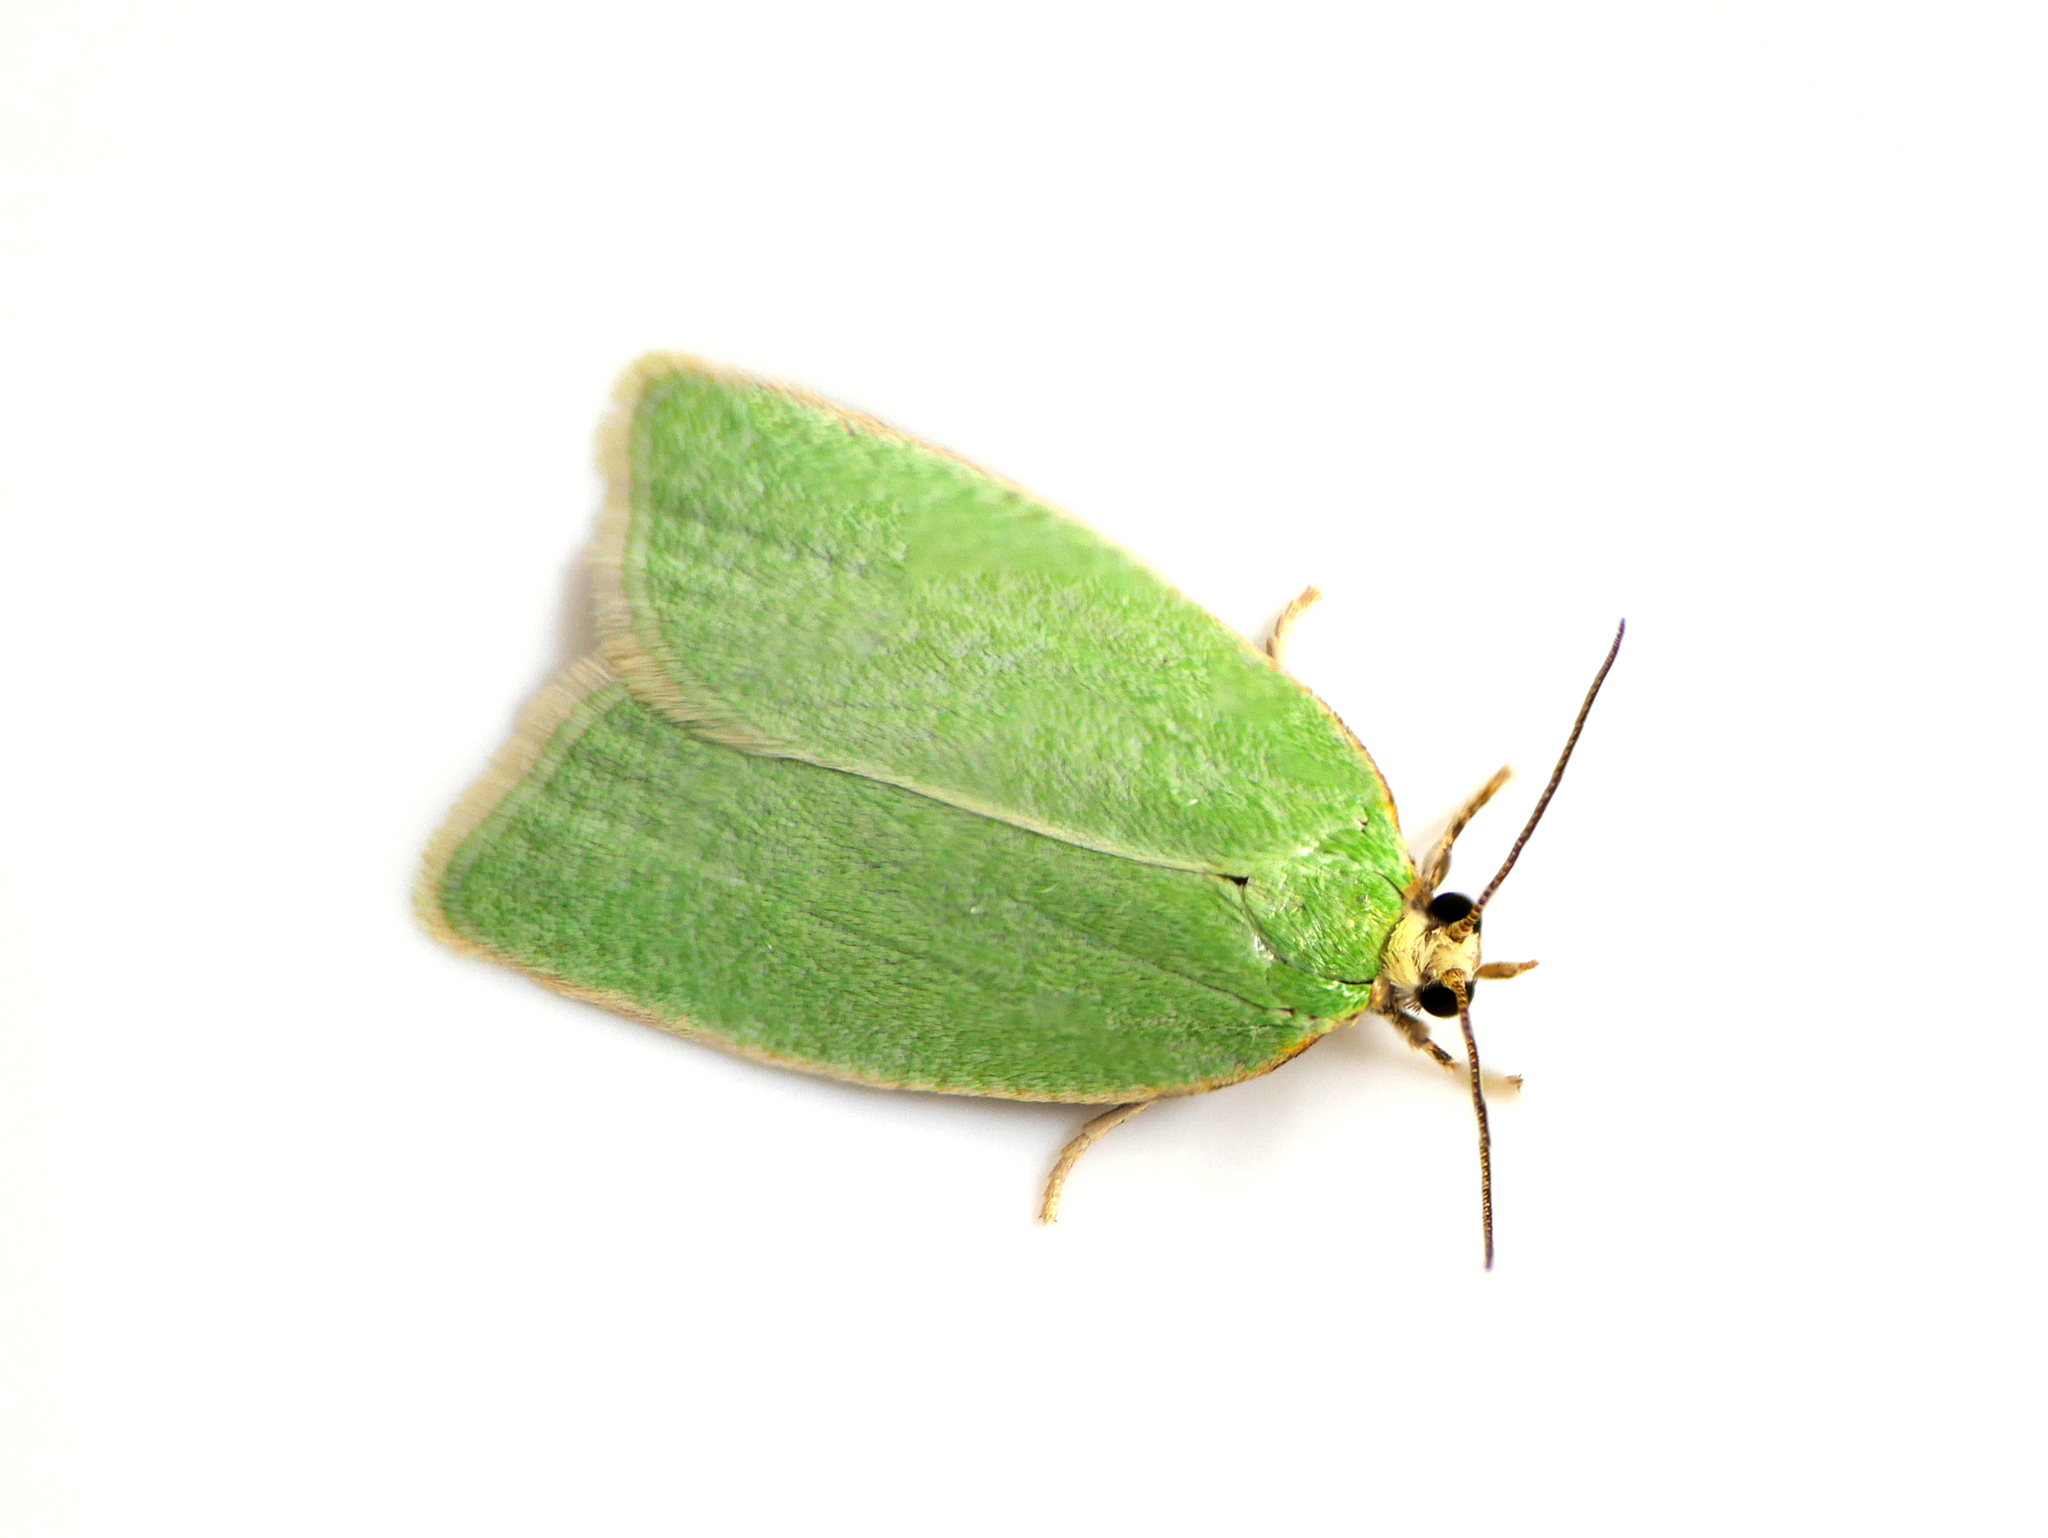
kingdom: Animalia
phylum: Arthropoda
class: Insecta
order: Lepidoptera
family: Tortricidae
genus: Tortrix
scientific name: Tortrix viridana
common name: Green oak tortrix
